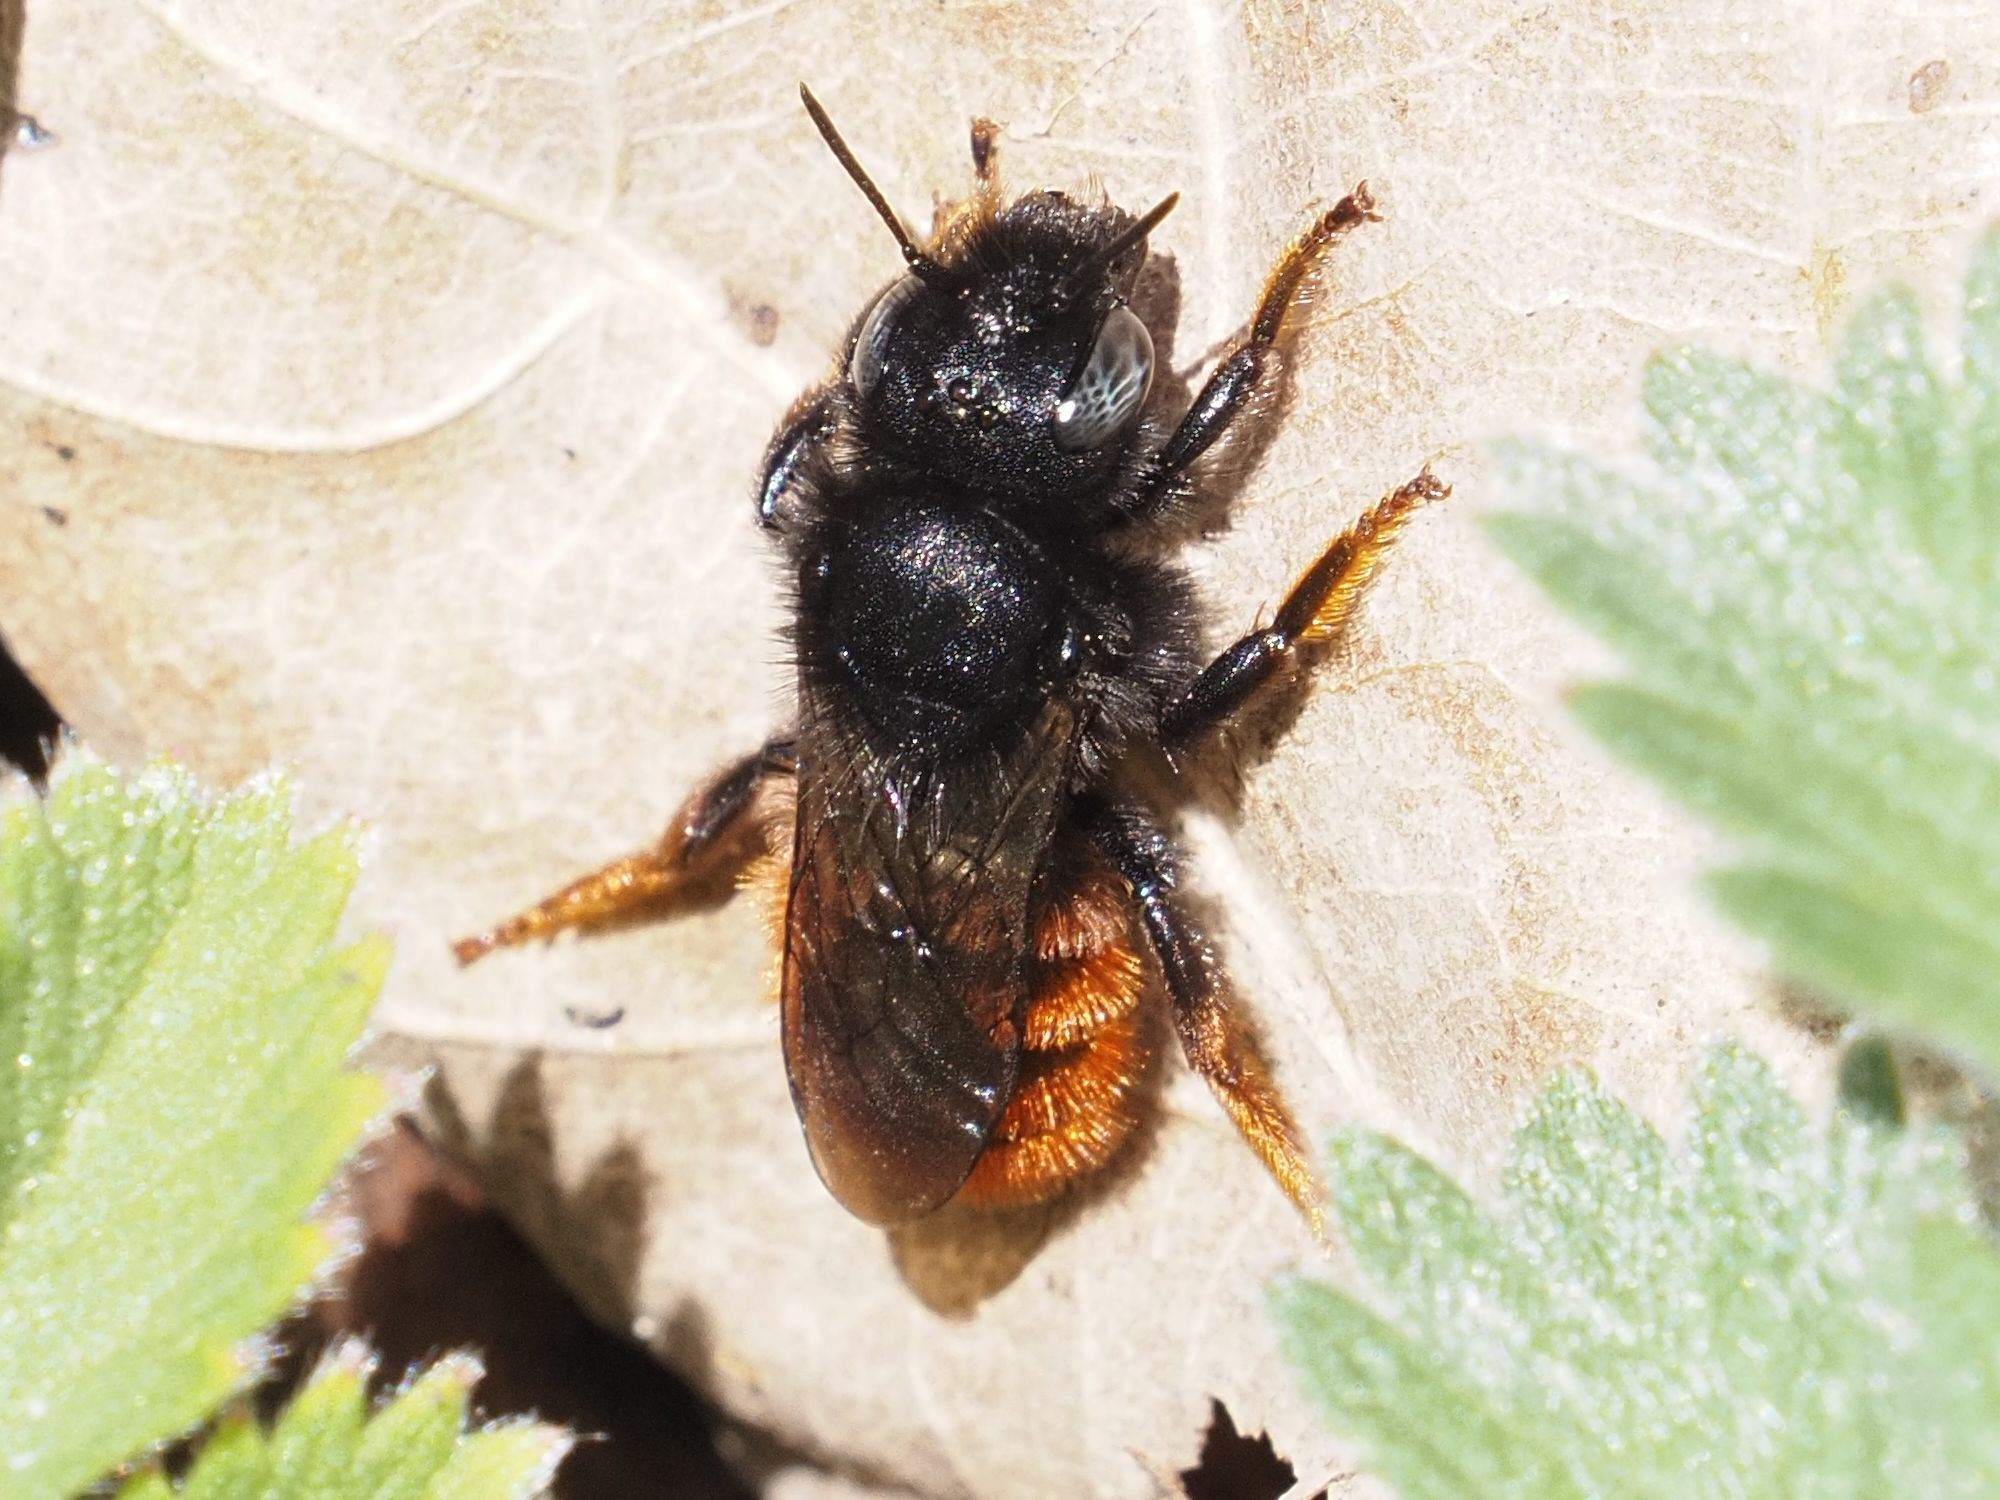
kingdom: Animalia
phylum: Arthropoda
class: Insecta
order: Hymenoptera
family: Megachilidae
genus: Osmia
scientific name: Osmia bicolor
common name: Red-tailed mason bee
